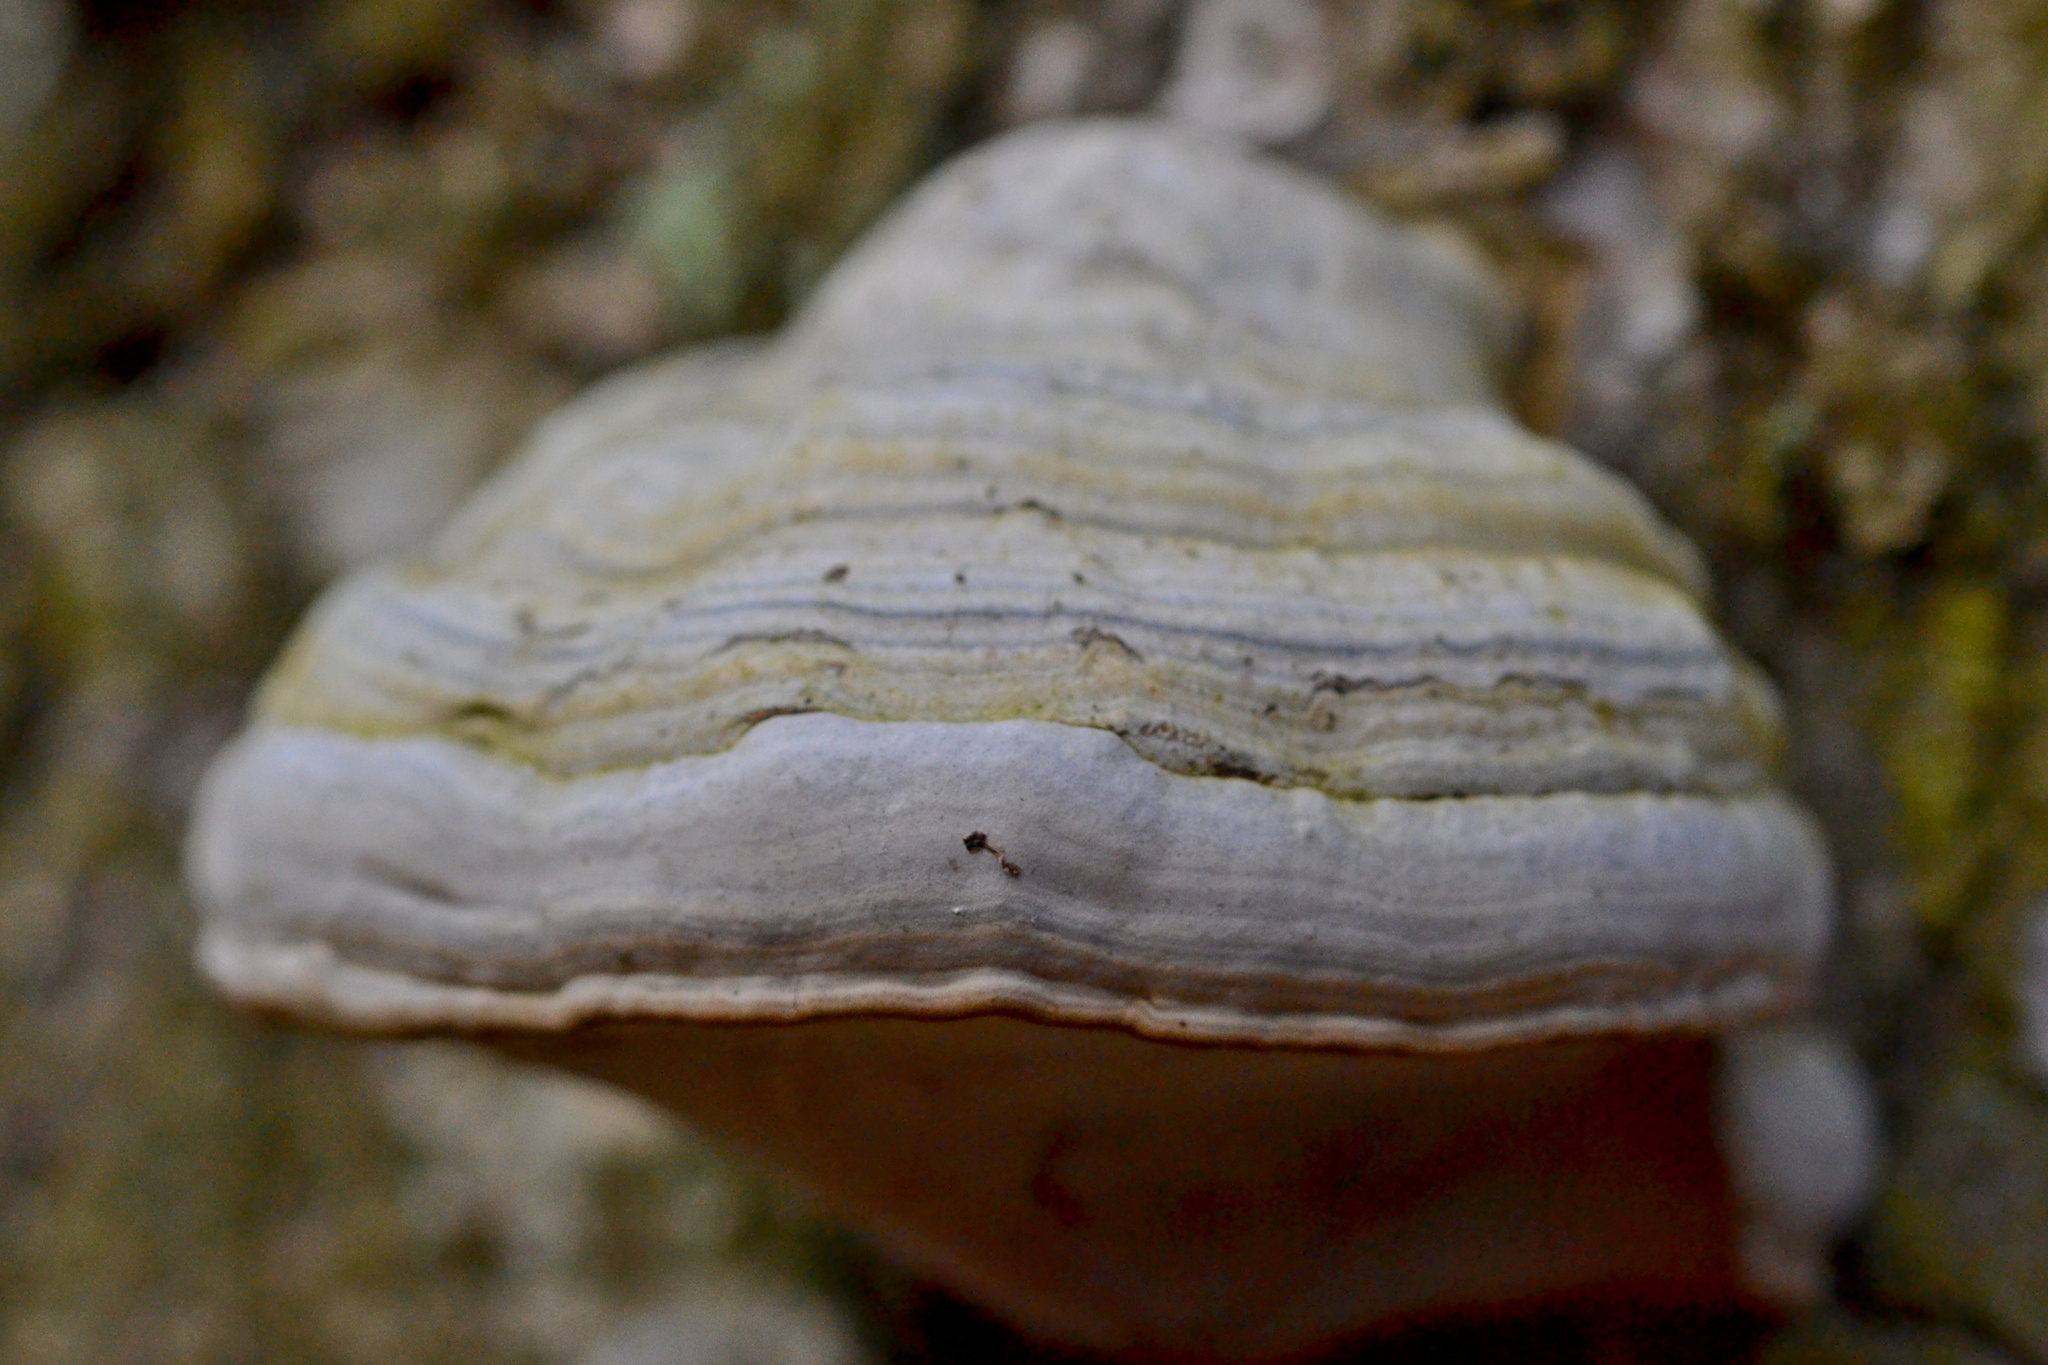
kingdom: Fungi
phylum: Basidiomycota
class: Agaricomycetes
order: Polyporales
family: Polyporaceae
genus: Fomes
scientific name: Fomes fomentarius
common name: Hoof fungus
